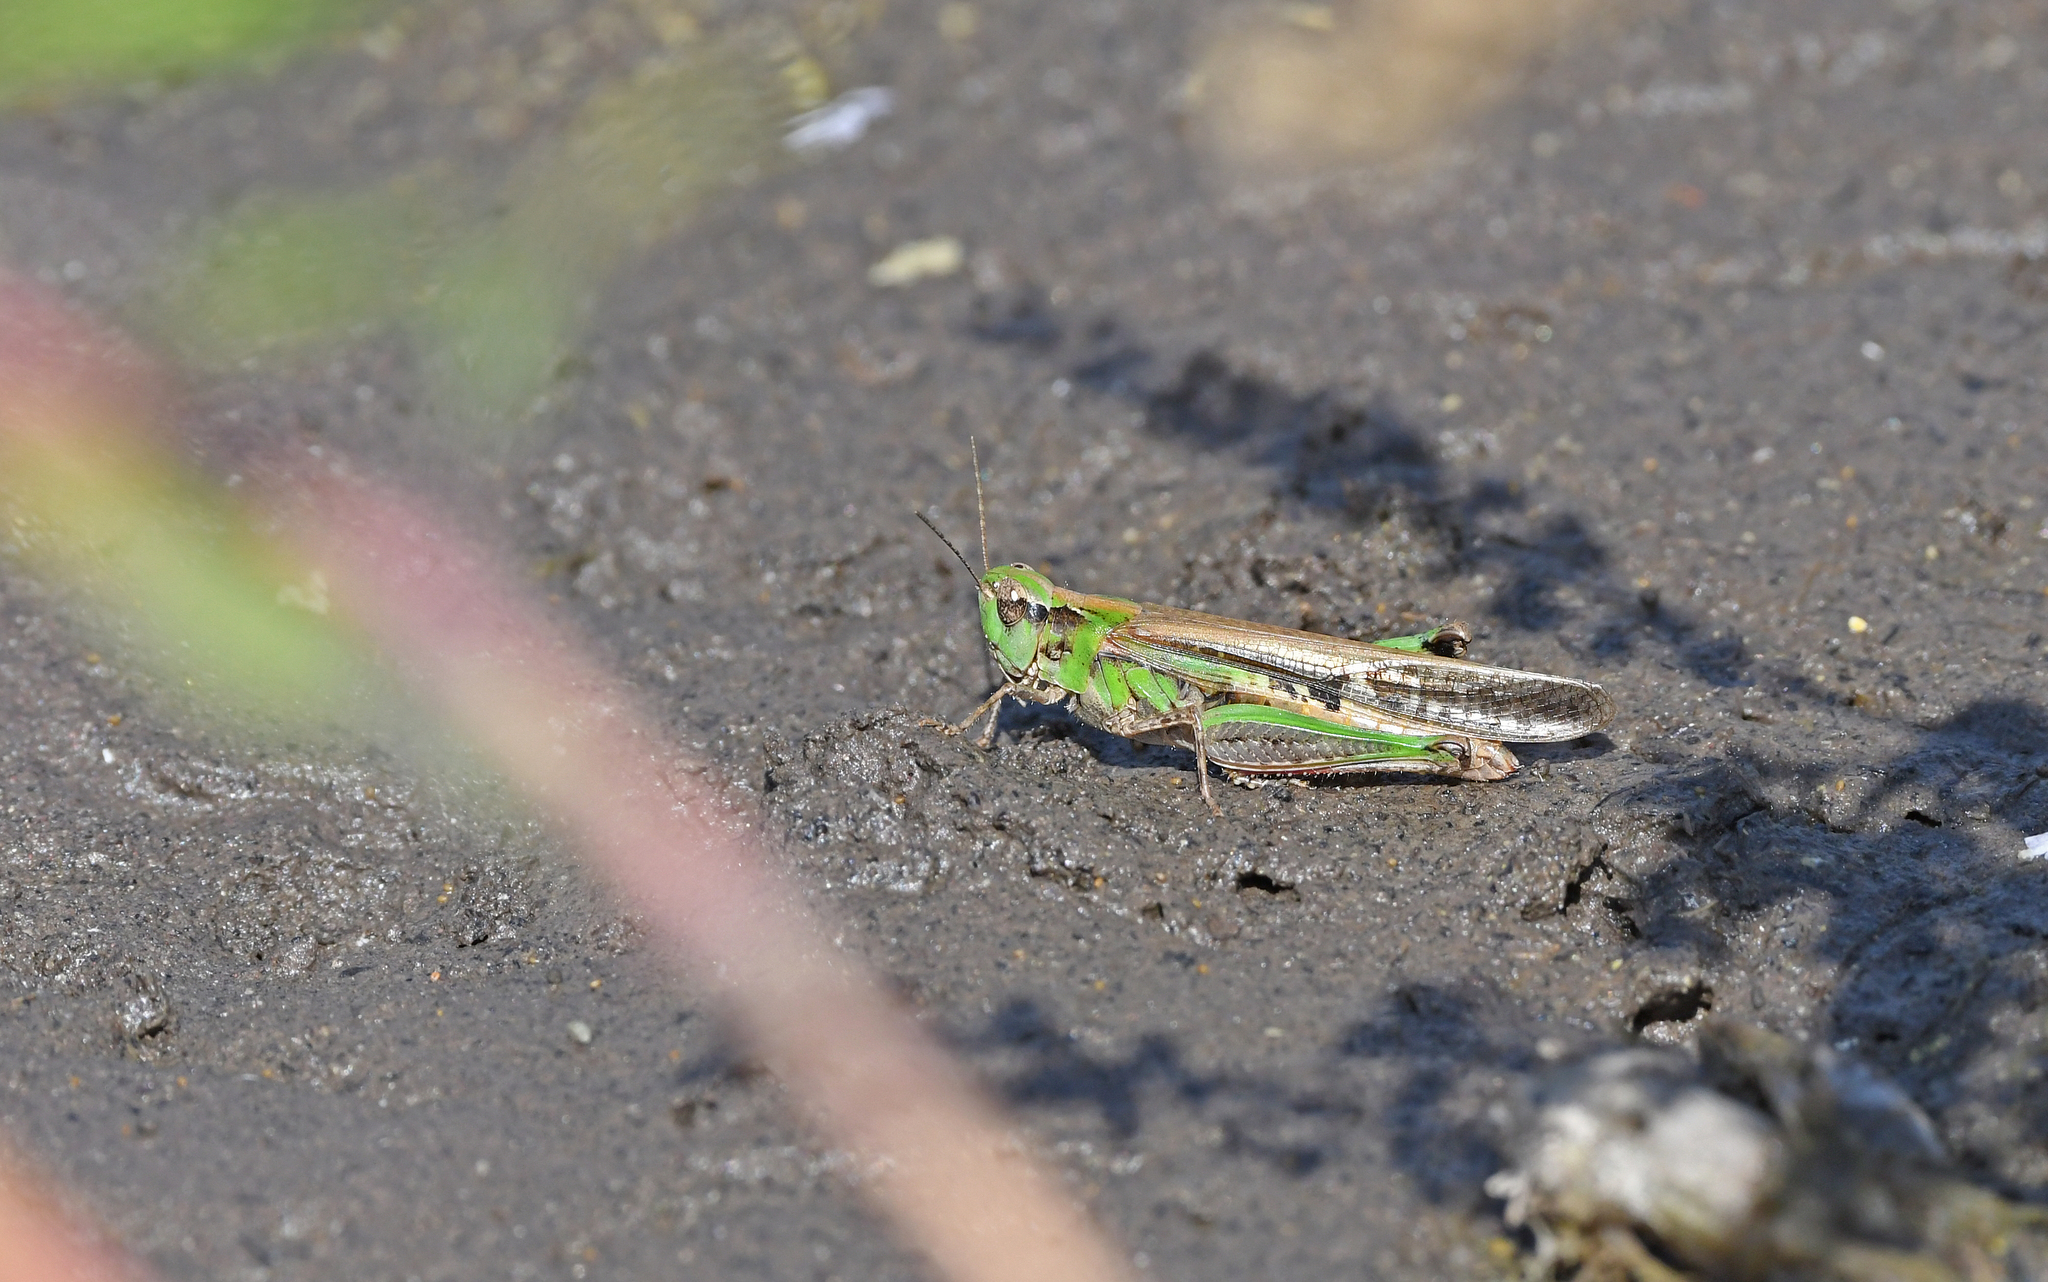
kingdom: Animalia
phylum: Arthropoda
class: Insecta
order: Orthoptera
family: Acrididae
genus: Aiolopus
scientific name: Aiolopus thalassinus
